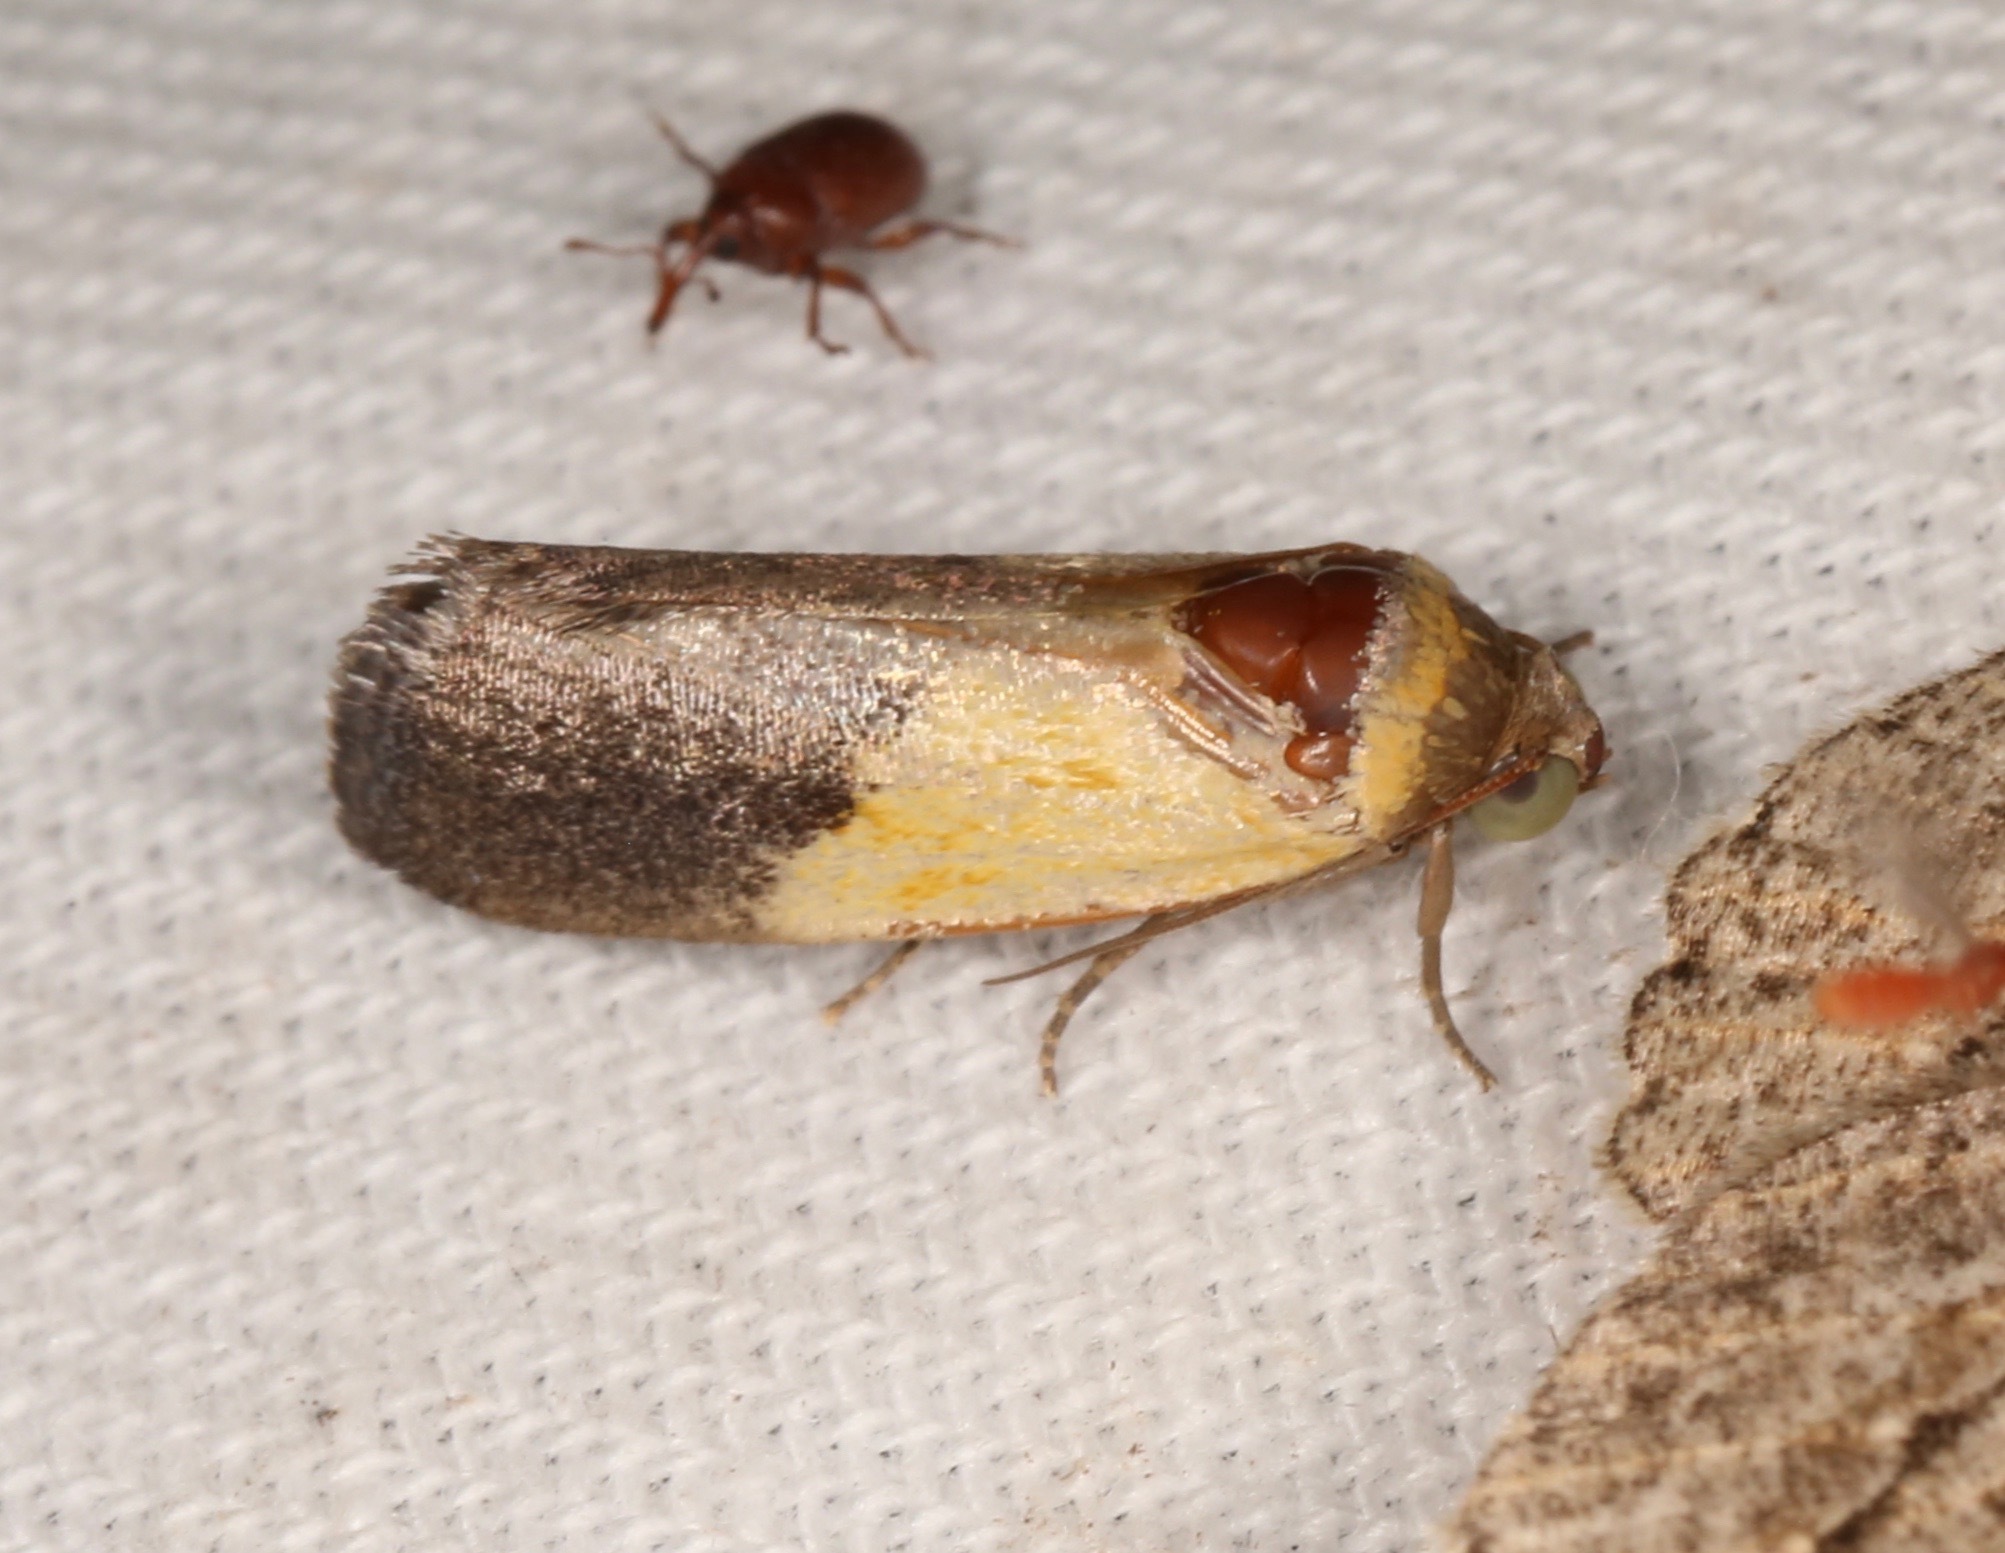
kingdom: Animalia
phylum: Arthropoda
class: Insecta
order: Lepidoptera
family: Noctuidae
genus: Acontia
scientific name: Acontia bicolorata
